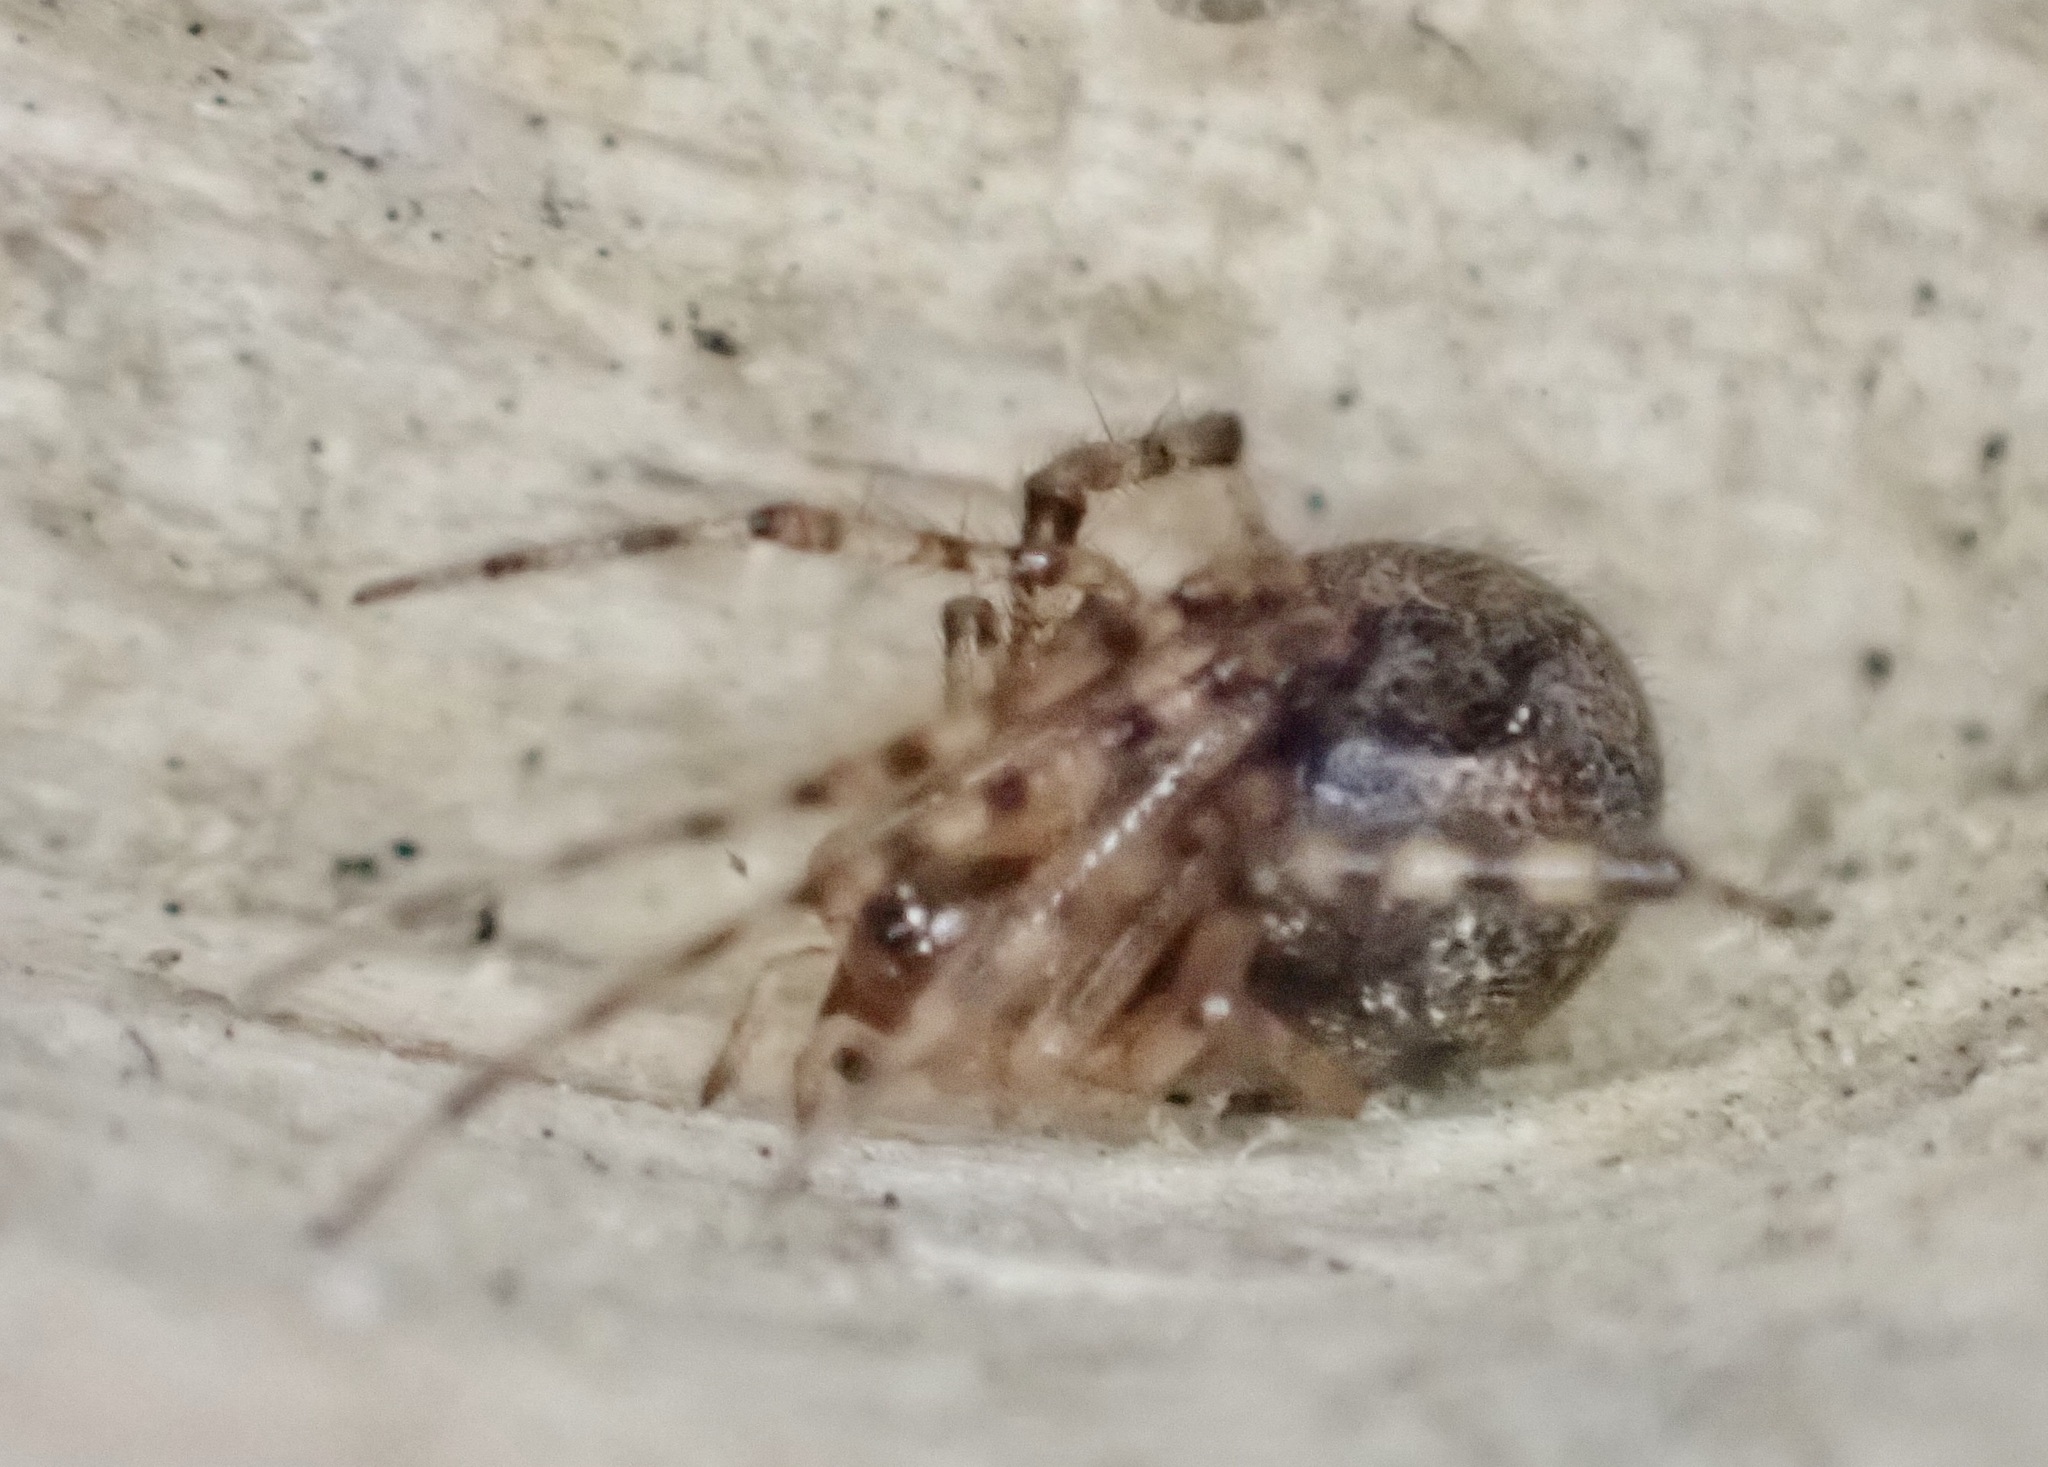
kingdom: Animalia
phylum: Arthropoda
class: Arachnida
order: Araneae
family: Theridiidae
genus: Cryptachaea
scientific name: Cryptachaea veruculata
